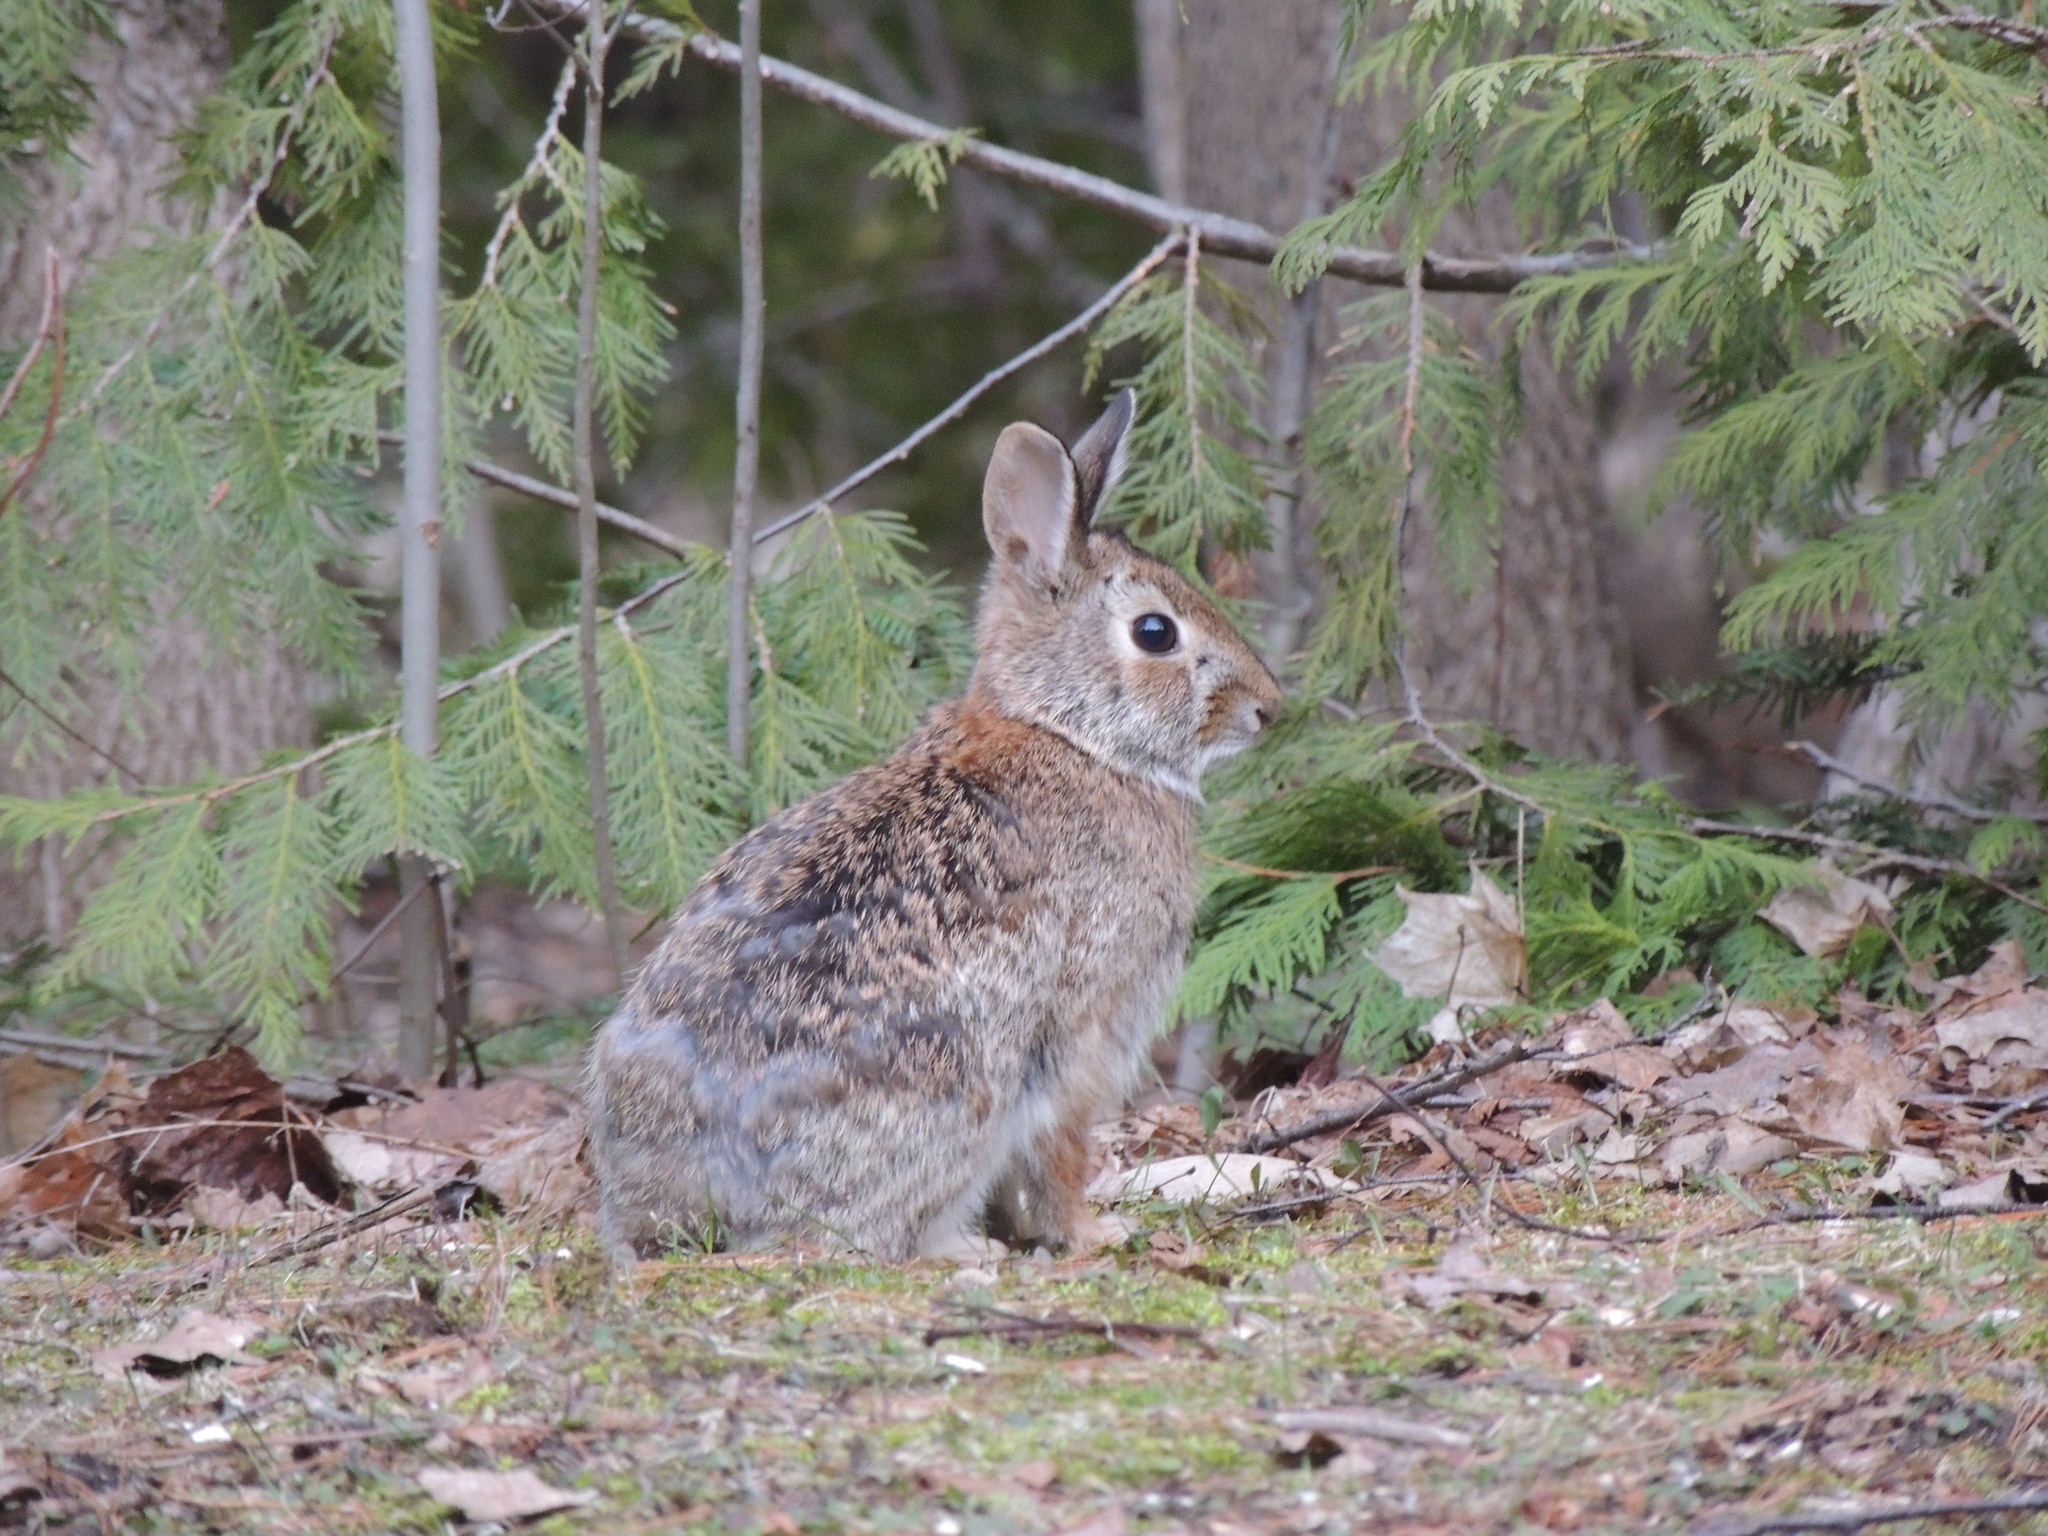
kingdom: Animalia
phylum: Chordata
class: Mammalia
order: Lagomorpha
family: Leporidae
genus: Sylvilagus
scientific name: Sylvilagus floridanus
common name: Eastern cottontail
